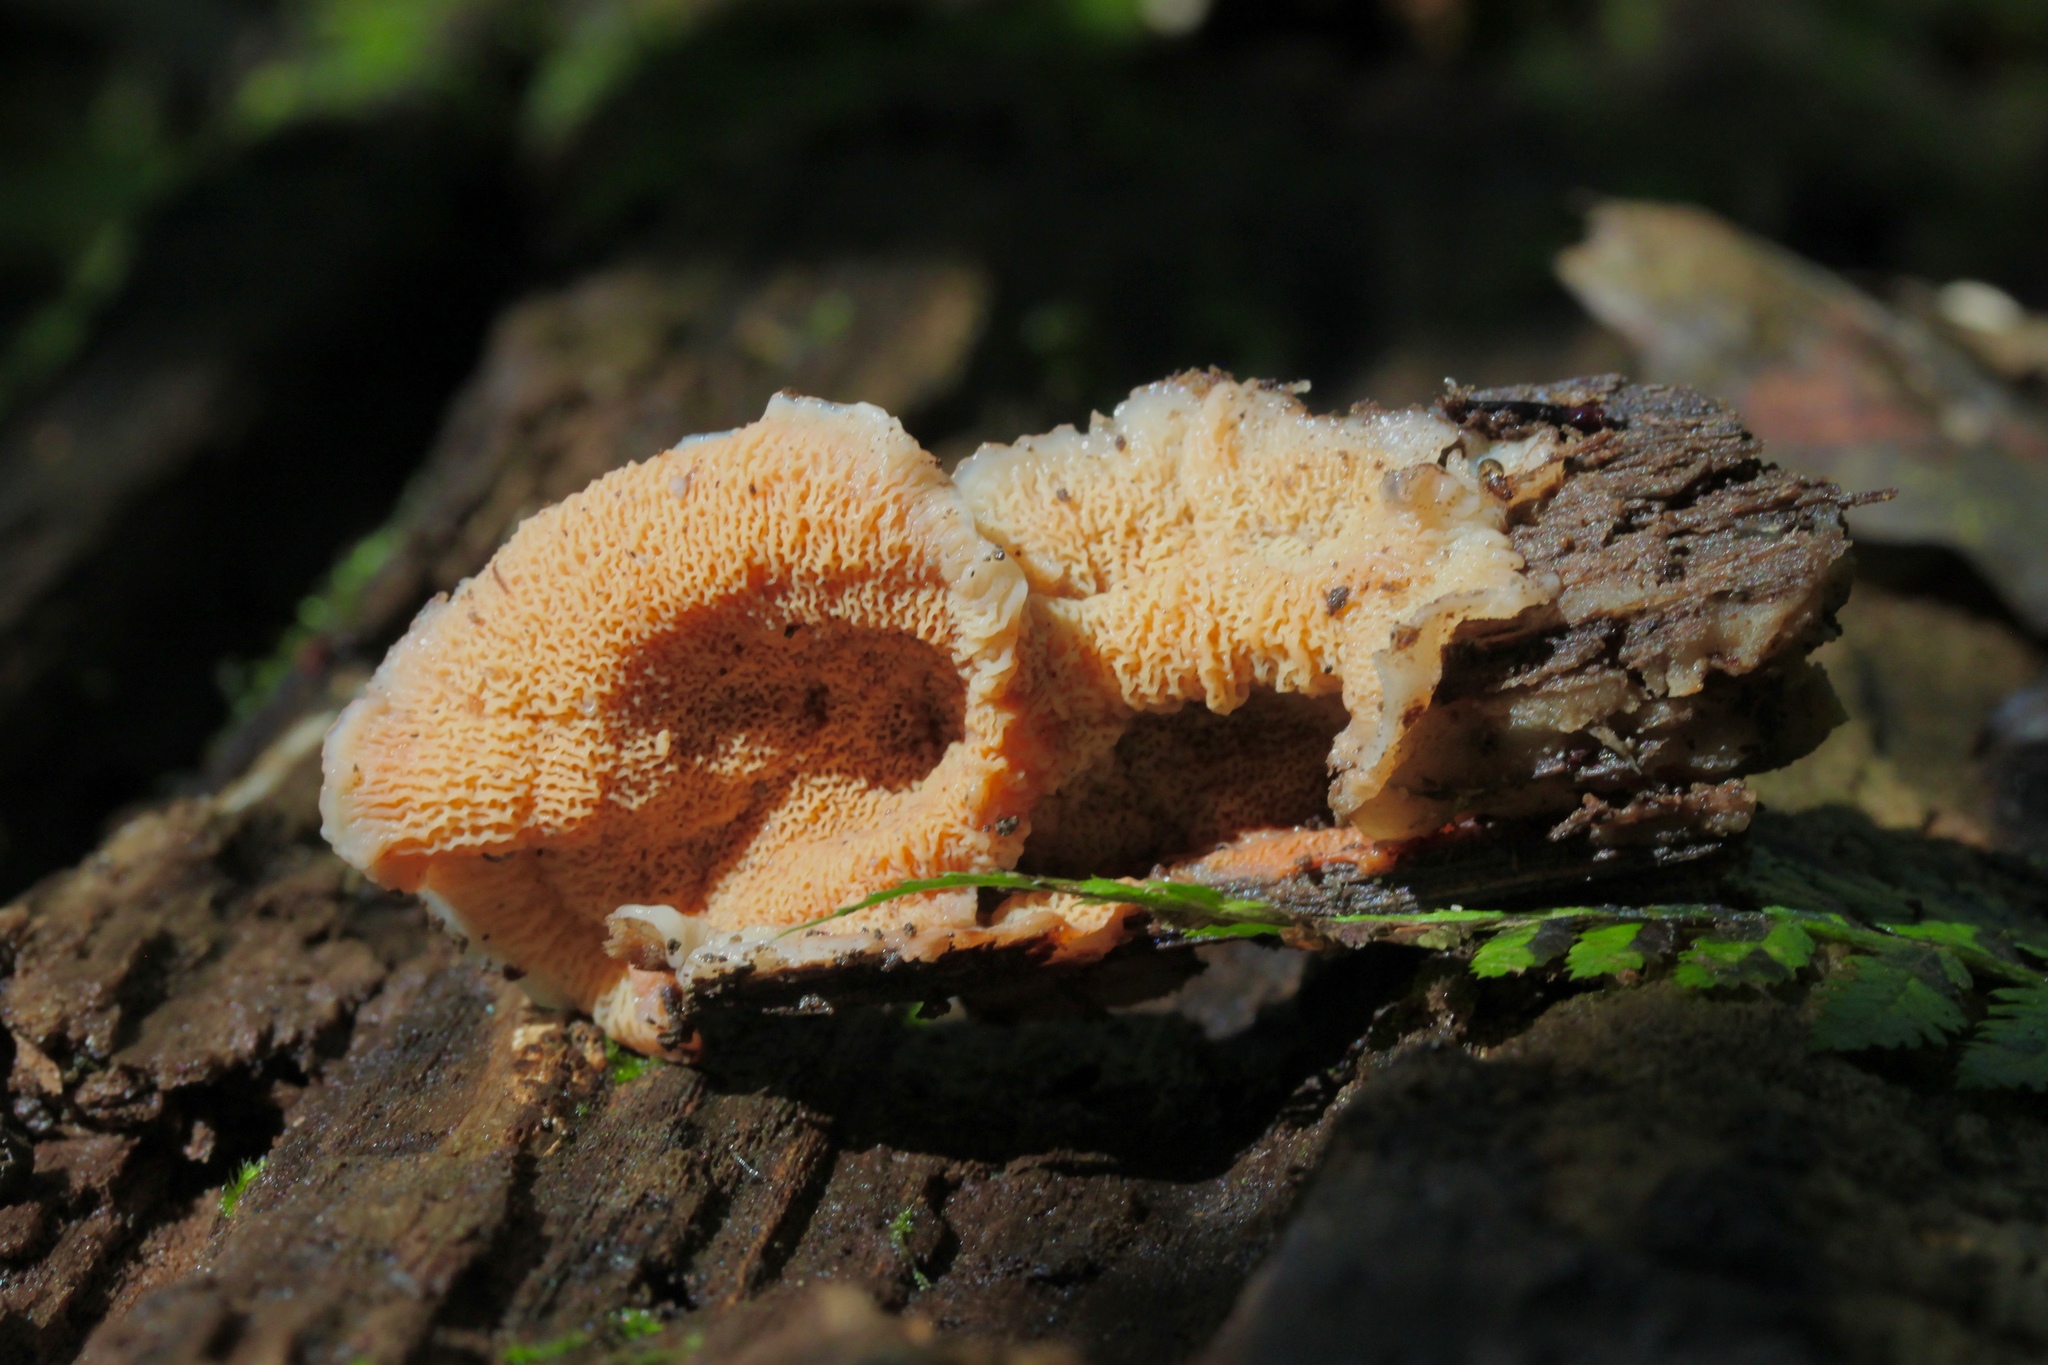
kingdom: Fungi
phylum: Basidiomycota
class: Agaricomycetes
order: Polyporales
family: Meruliaceae
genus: Phlebia
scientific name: Phlebia tremellosa
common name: Jelly rot
